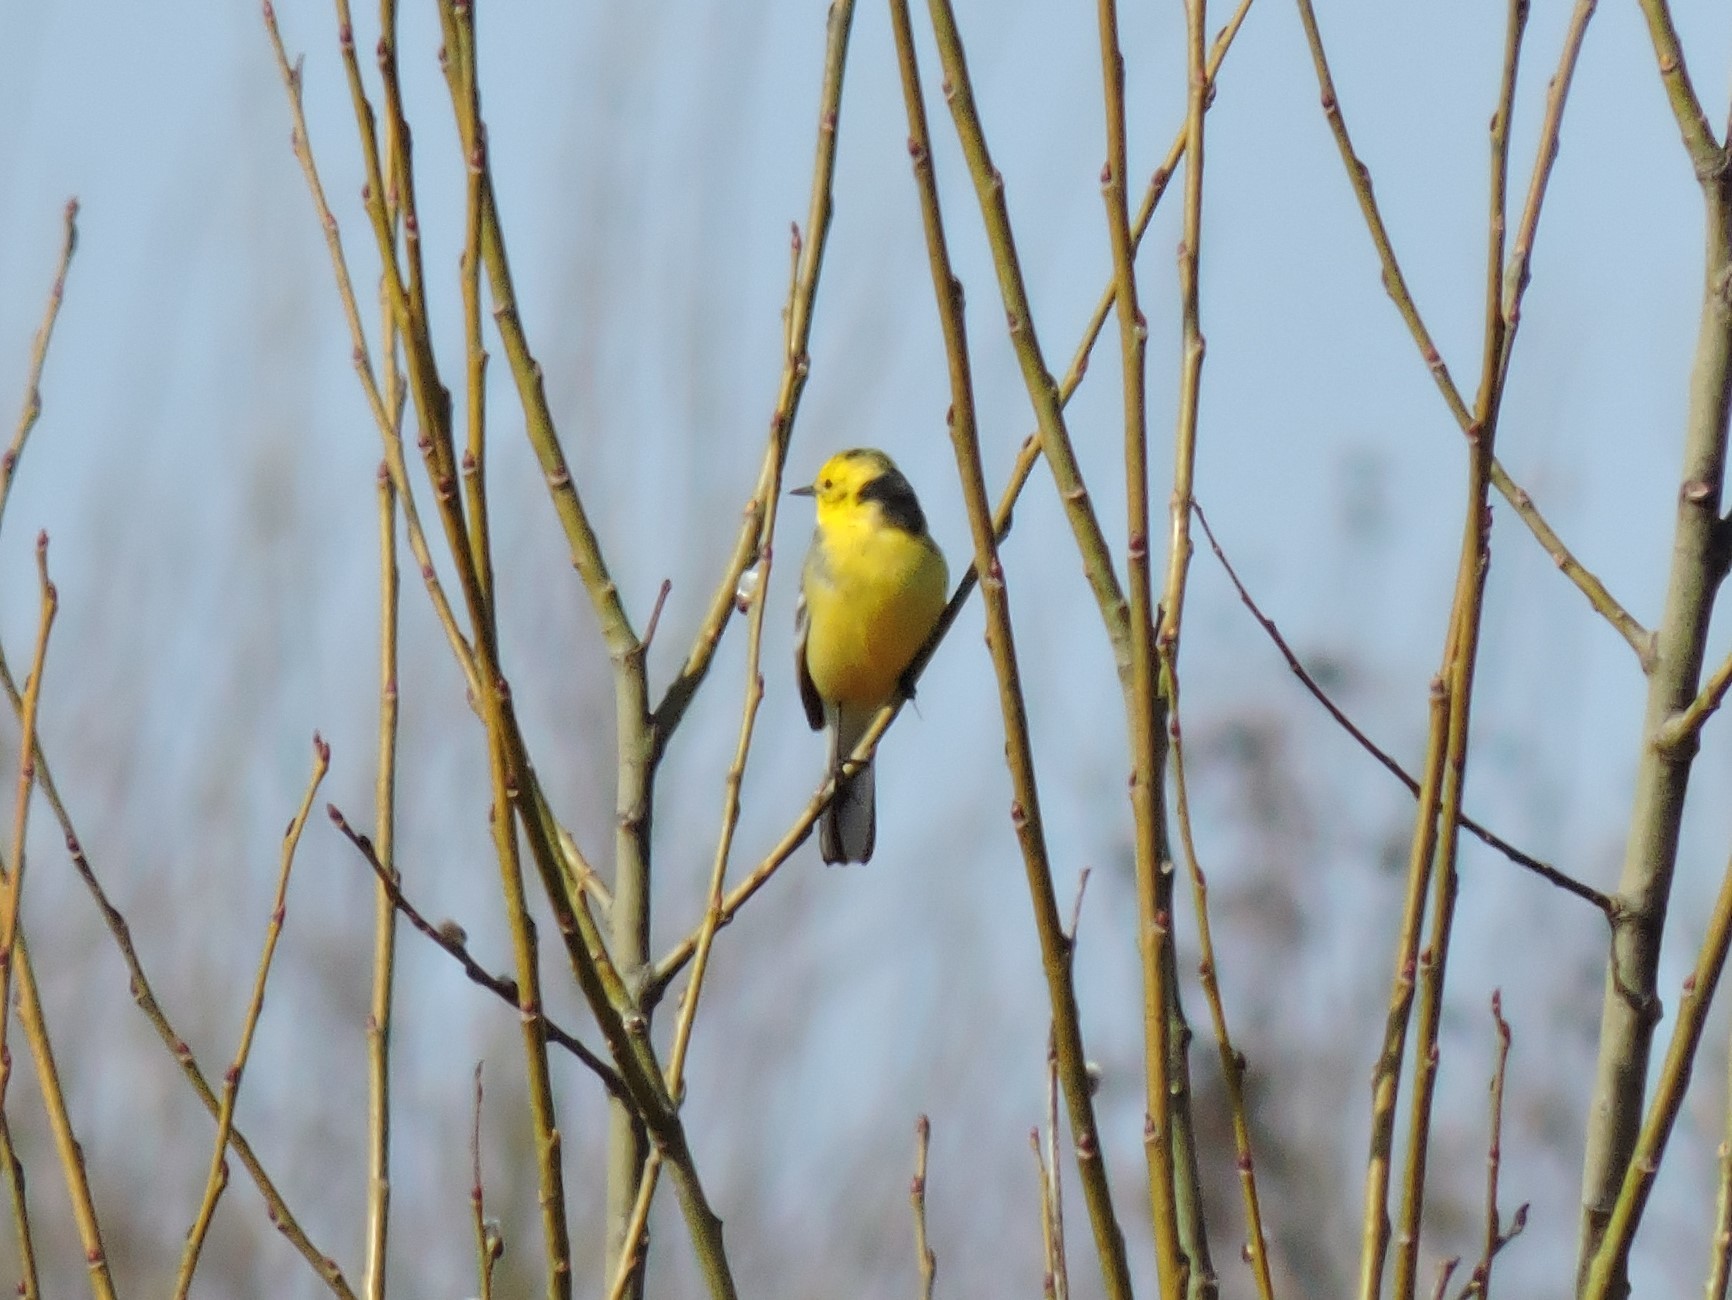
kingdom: Animalia
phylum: Chordata
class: Aves
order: Passeriformes
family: Motacillidae
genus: Motacilla
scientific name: Motacilla citreola
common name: Citrine wagtail
